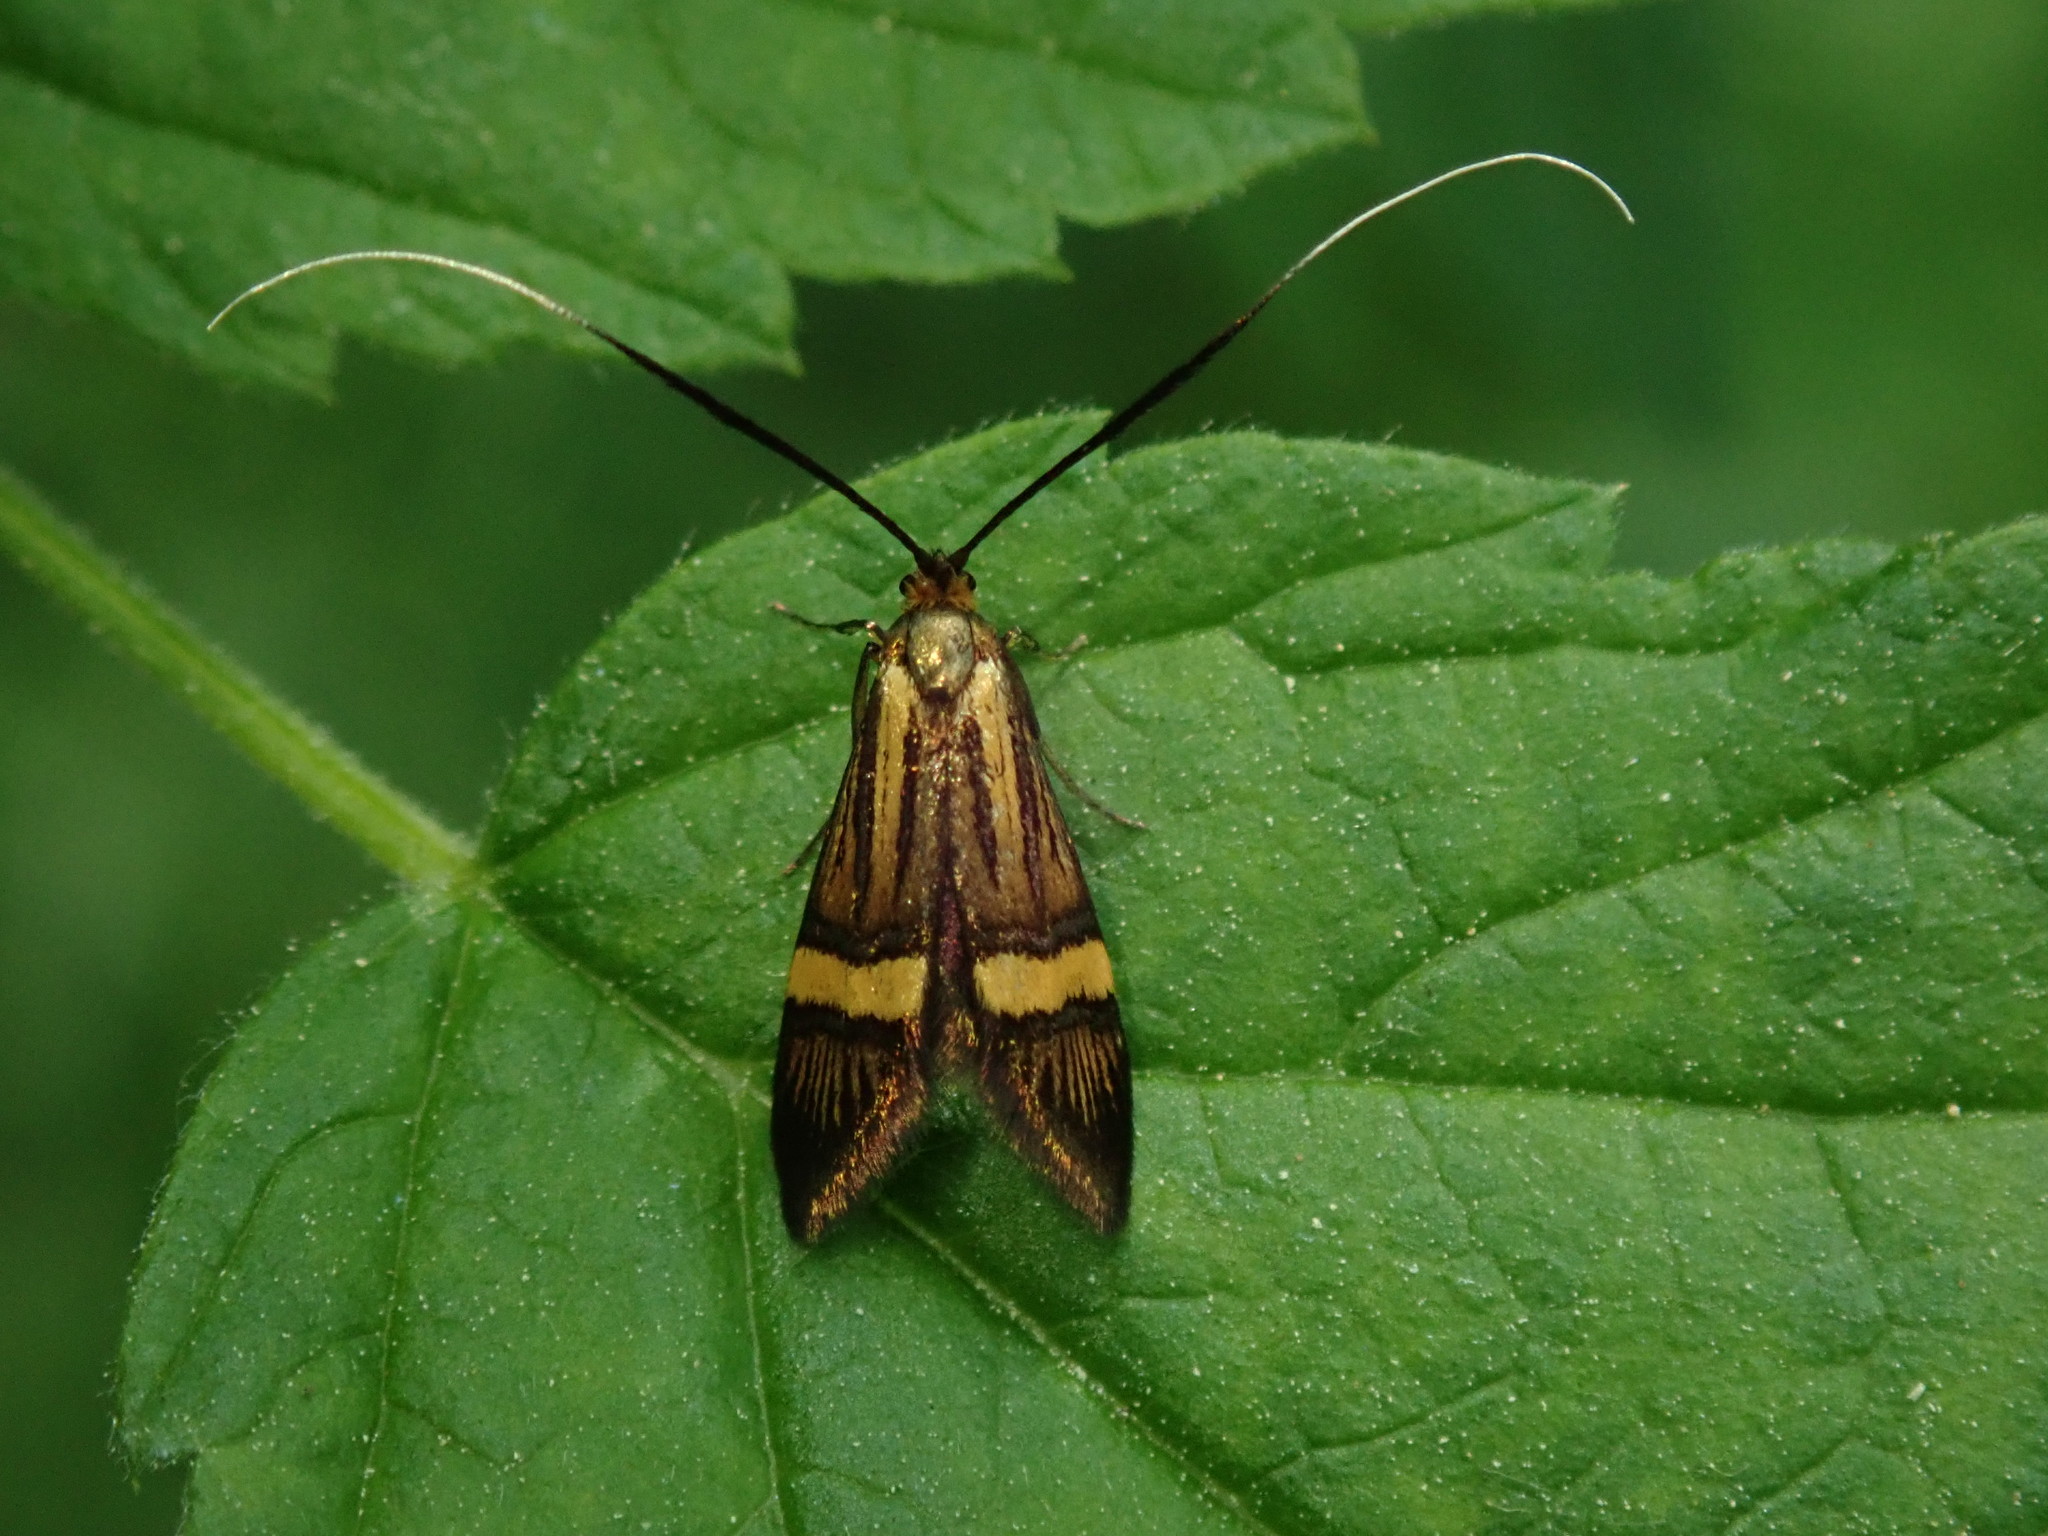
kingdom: Animalia
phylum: Arthropoda
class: Insecta
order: Lepidoptera
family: Adelidae
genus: Nemophora
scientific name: Nemophora degeerella
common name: Yellow-barred long-horn
